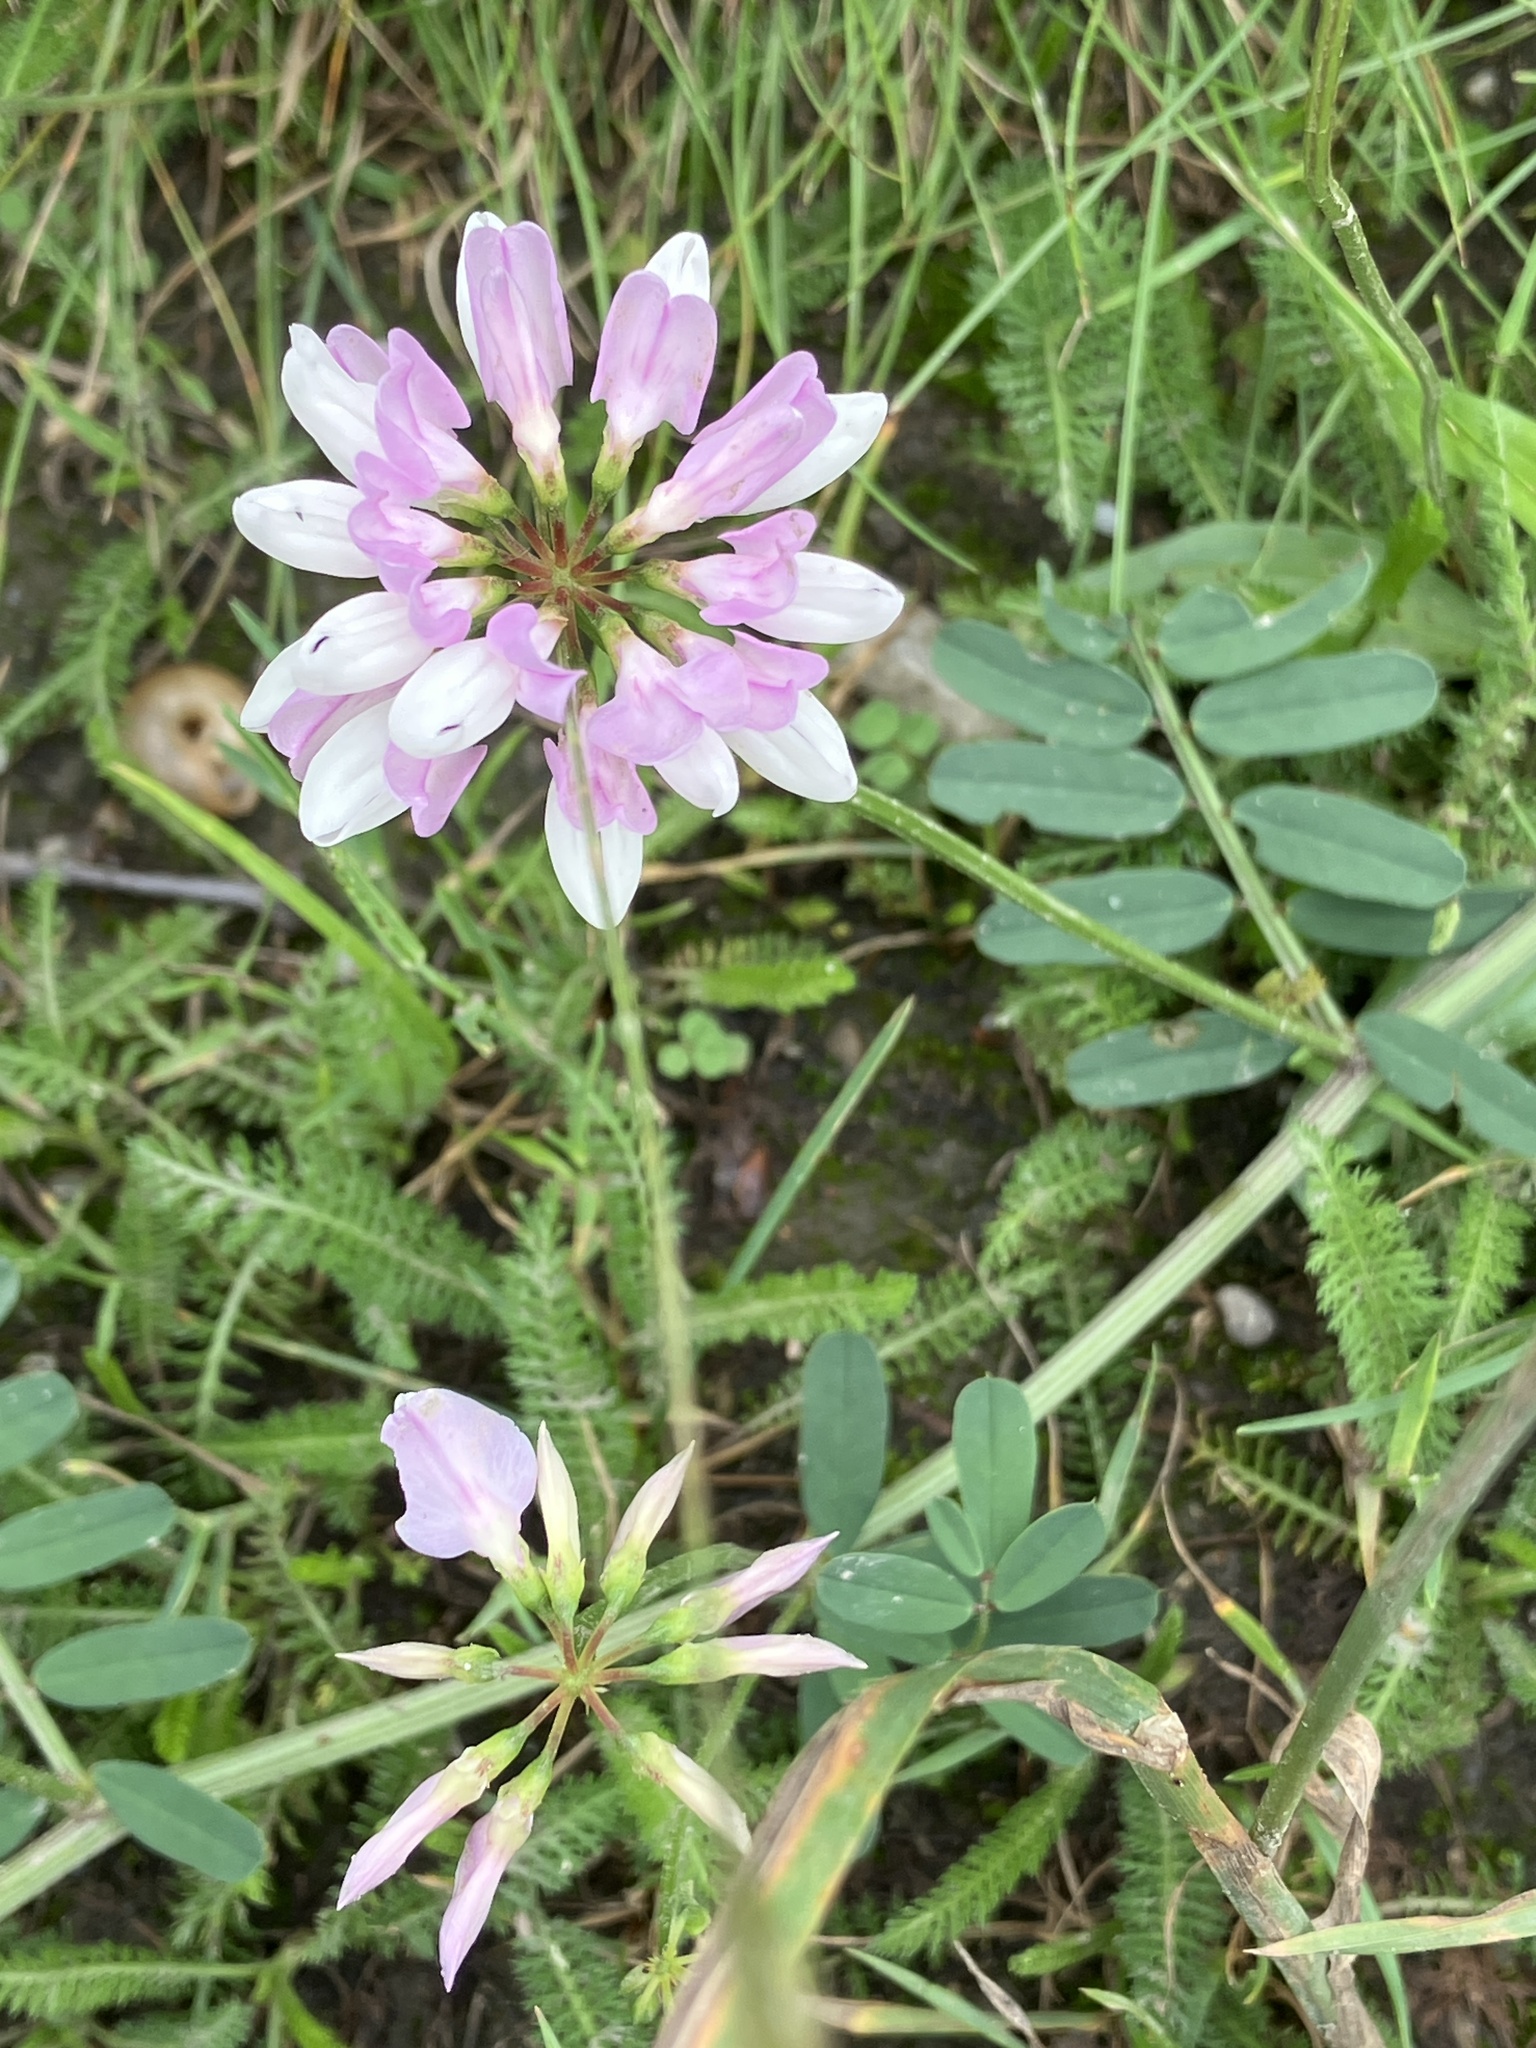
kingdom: Plantae
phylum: Tracheophyta
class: Magnoliopsida
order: Fabales
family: Fabaceae
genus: Coronilla
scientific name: Coronilla varia
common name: Crownvetch
